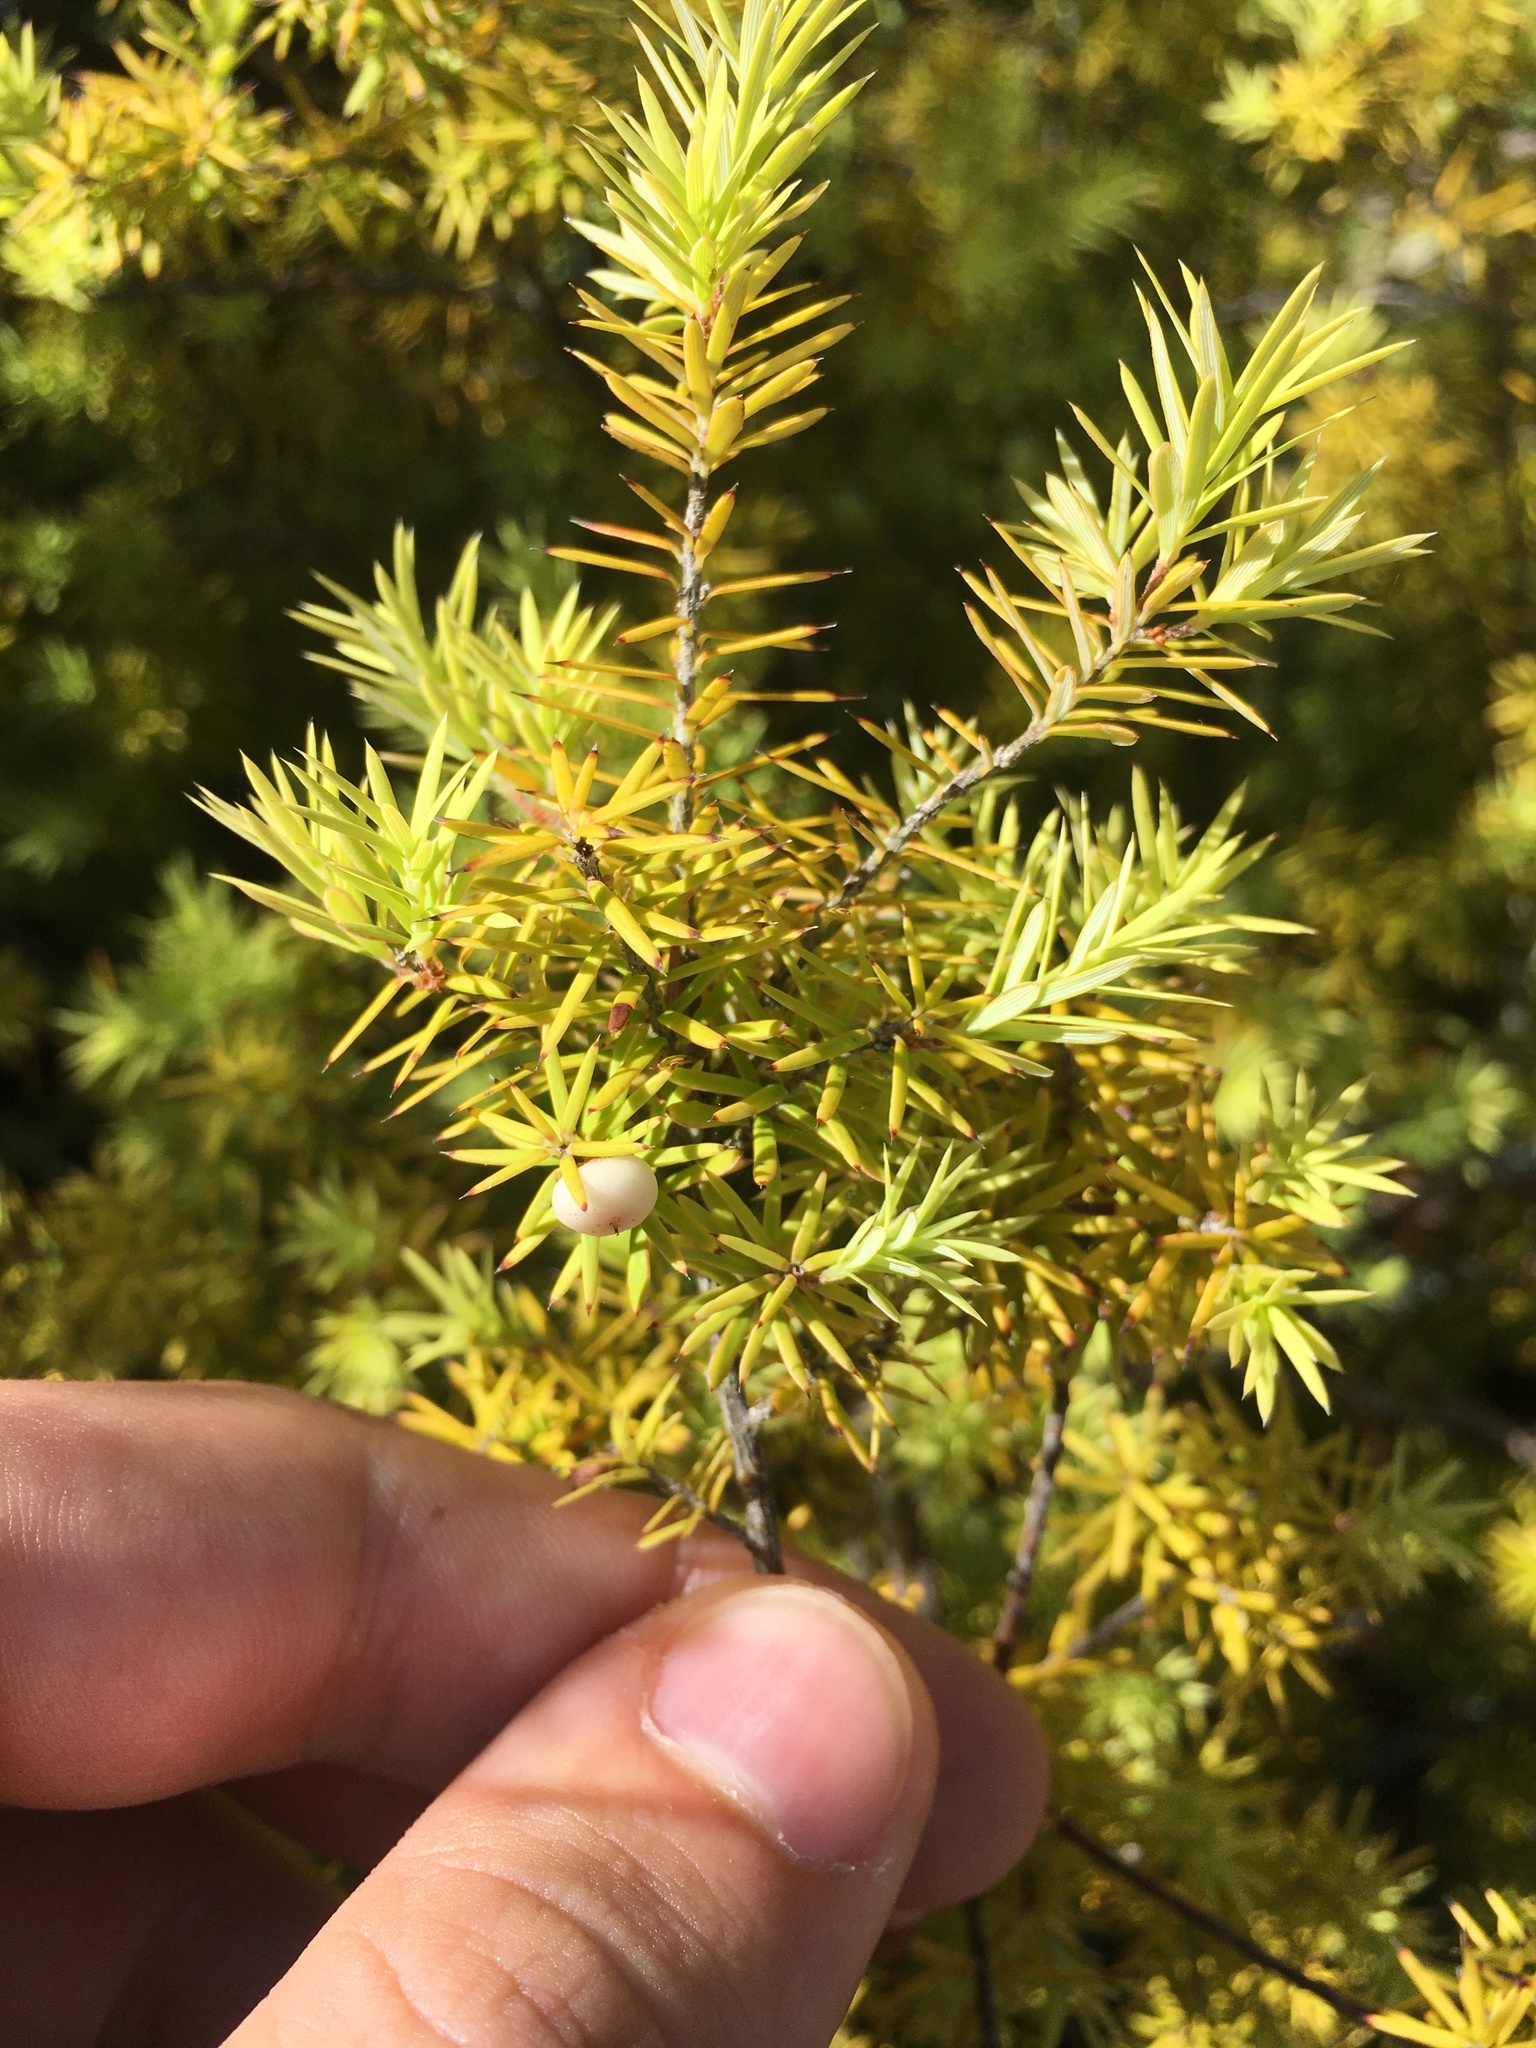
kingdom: Plantae
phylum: Tracheophyta
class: Magnoliopsida
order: Ericales
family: Ericaceae
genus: Leptecophylla
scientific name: Leptecophylla juniperina
